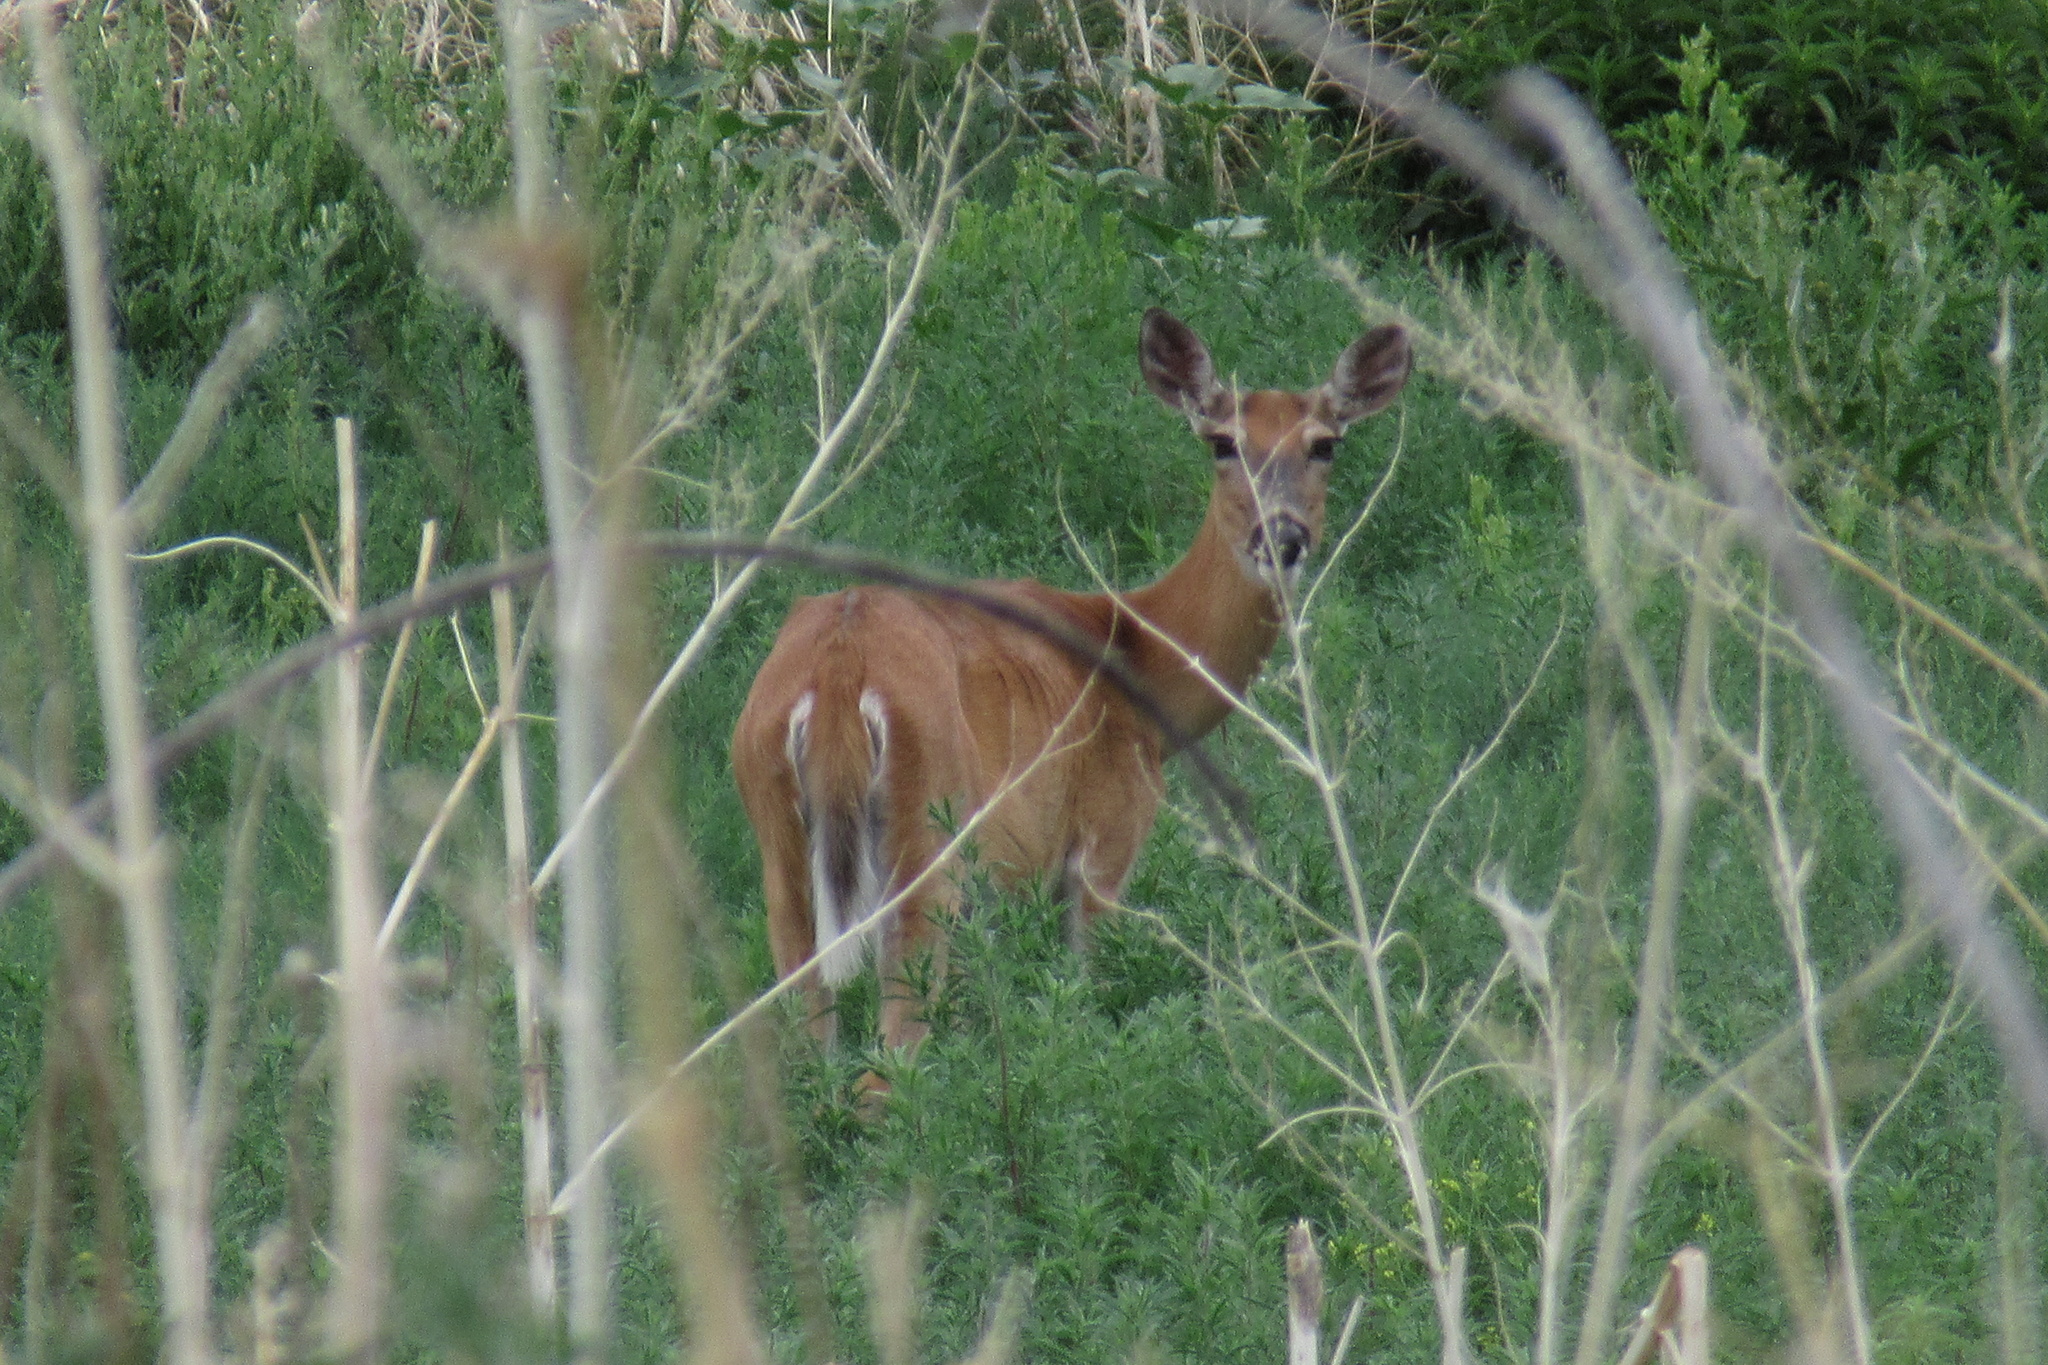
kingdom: Animalia
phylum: Chordata
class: Mammalia
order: Artiodactyla
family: Cervidae
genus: Odocoileus
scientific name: Odocoileus virginianus
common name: White-tailed deer
